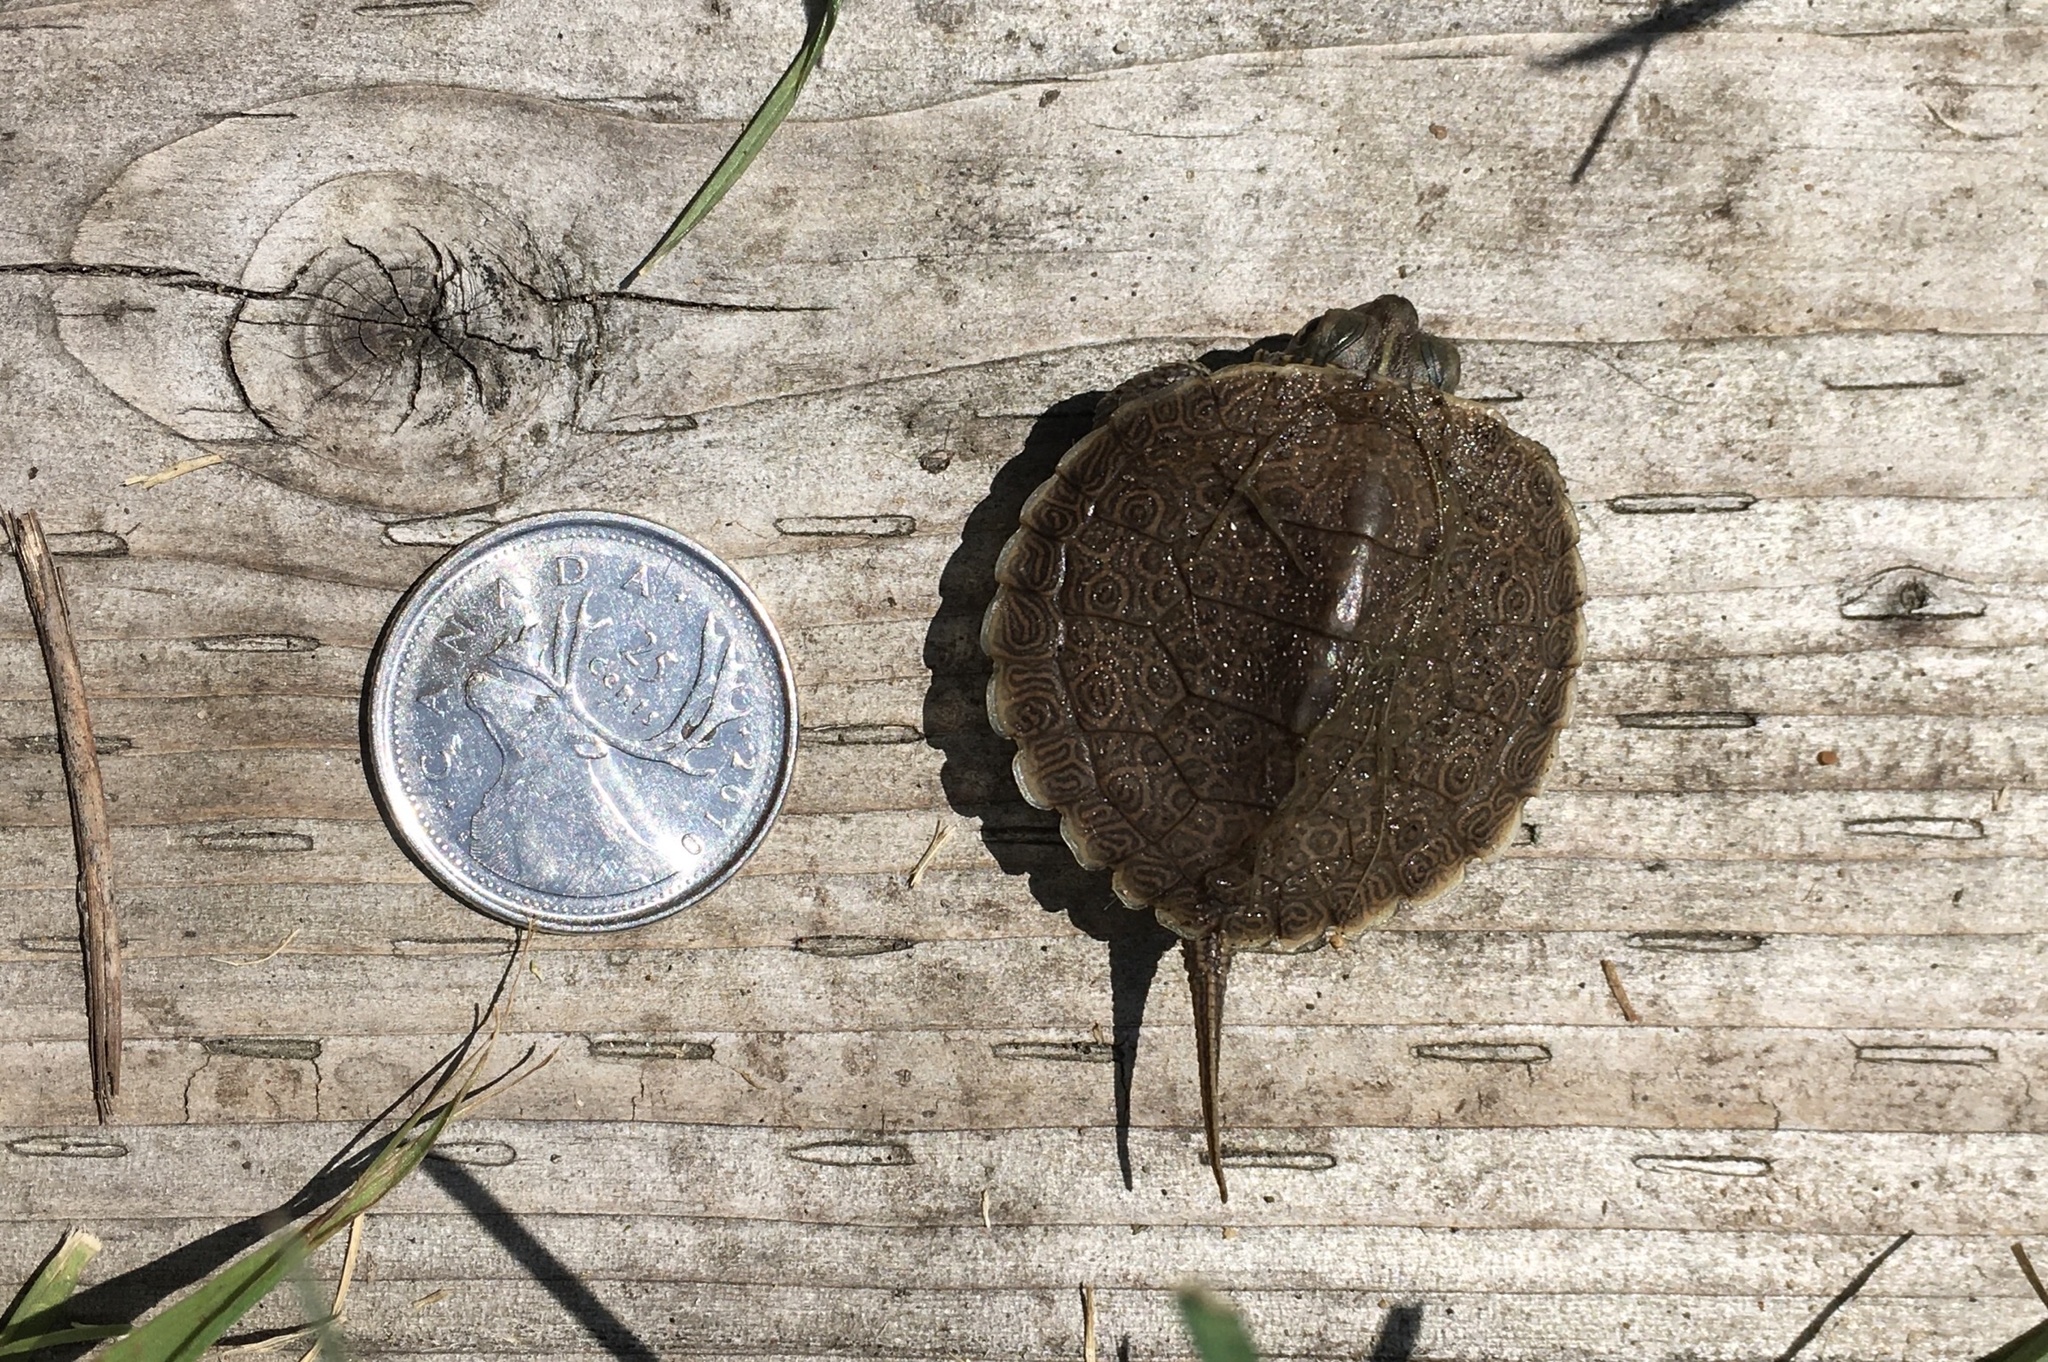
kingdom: Animalia
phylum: Chordata
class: Testudines
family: Emydidae
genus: Graptemys
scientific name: Graptemys geographica
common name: Common map turtle
